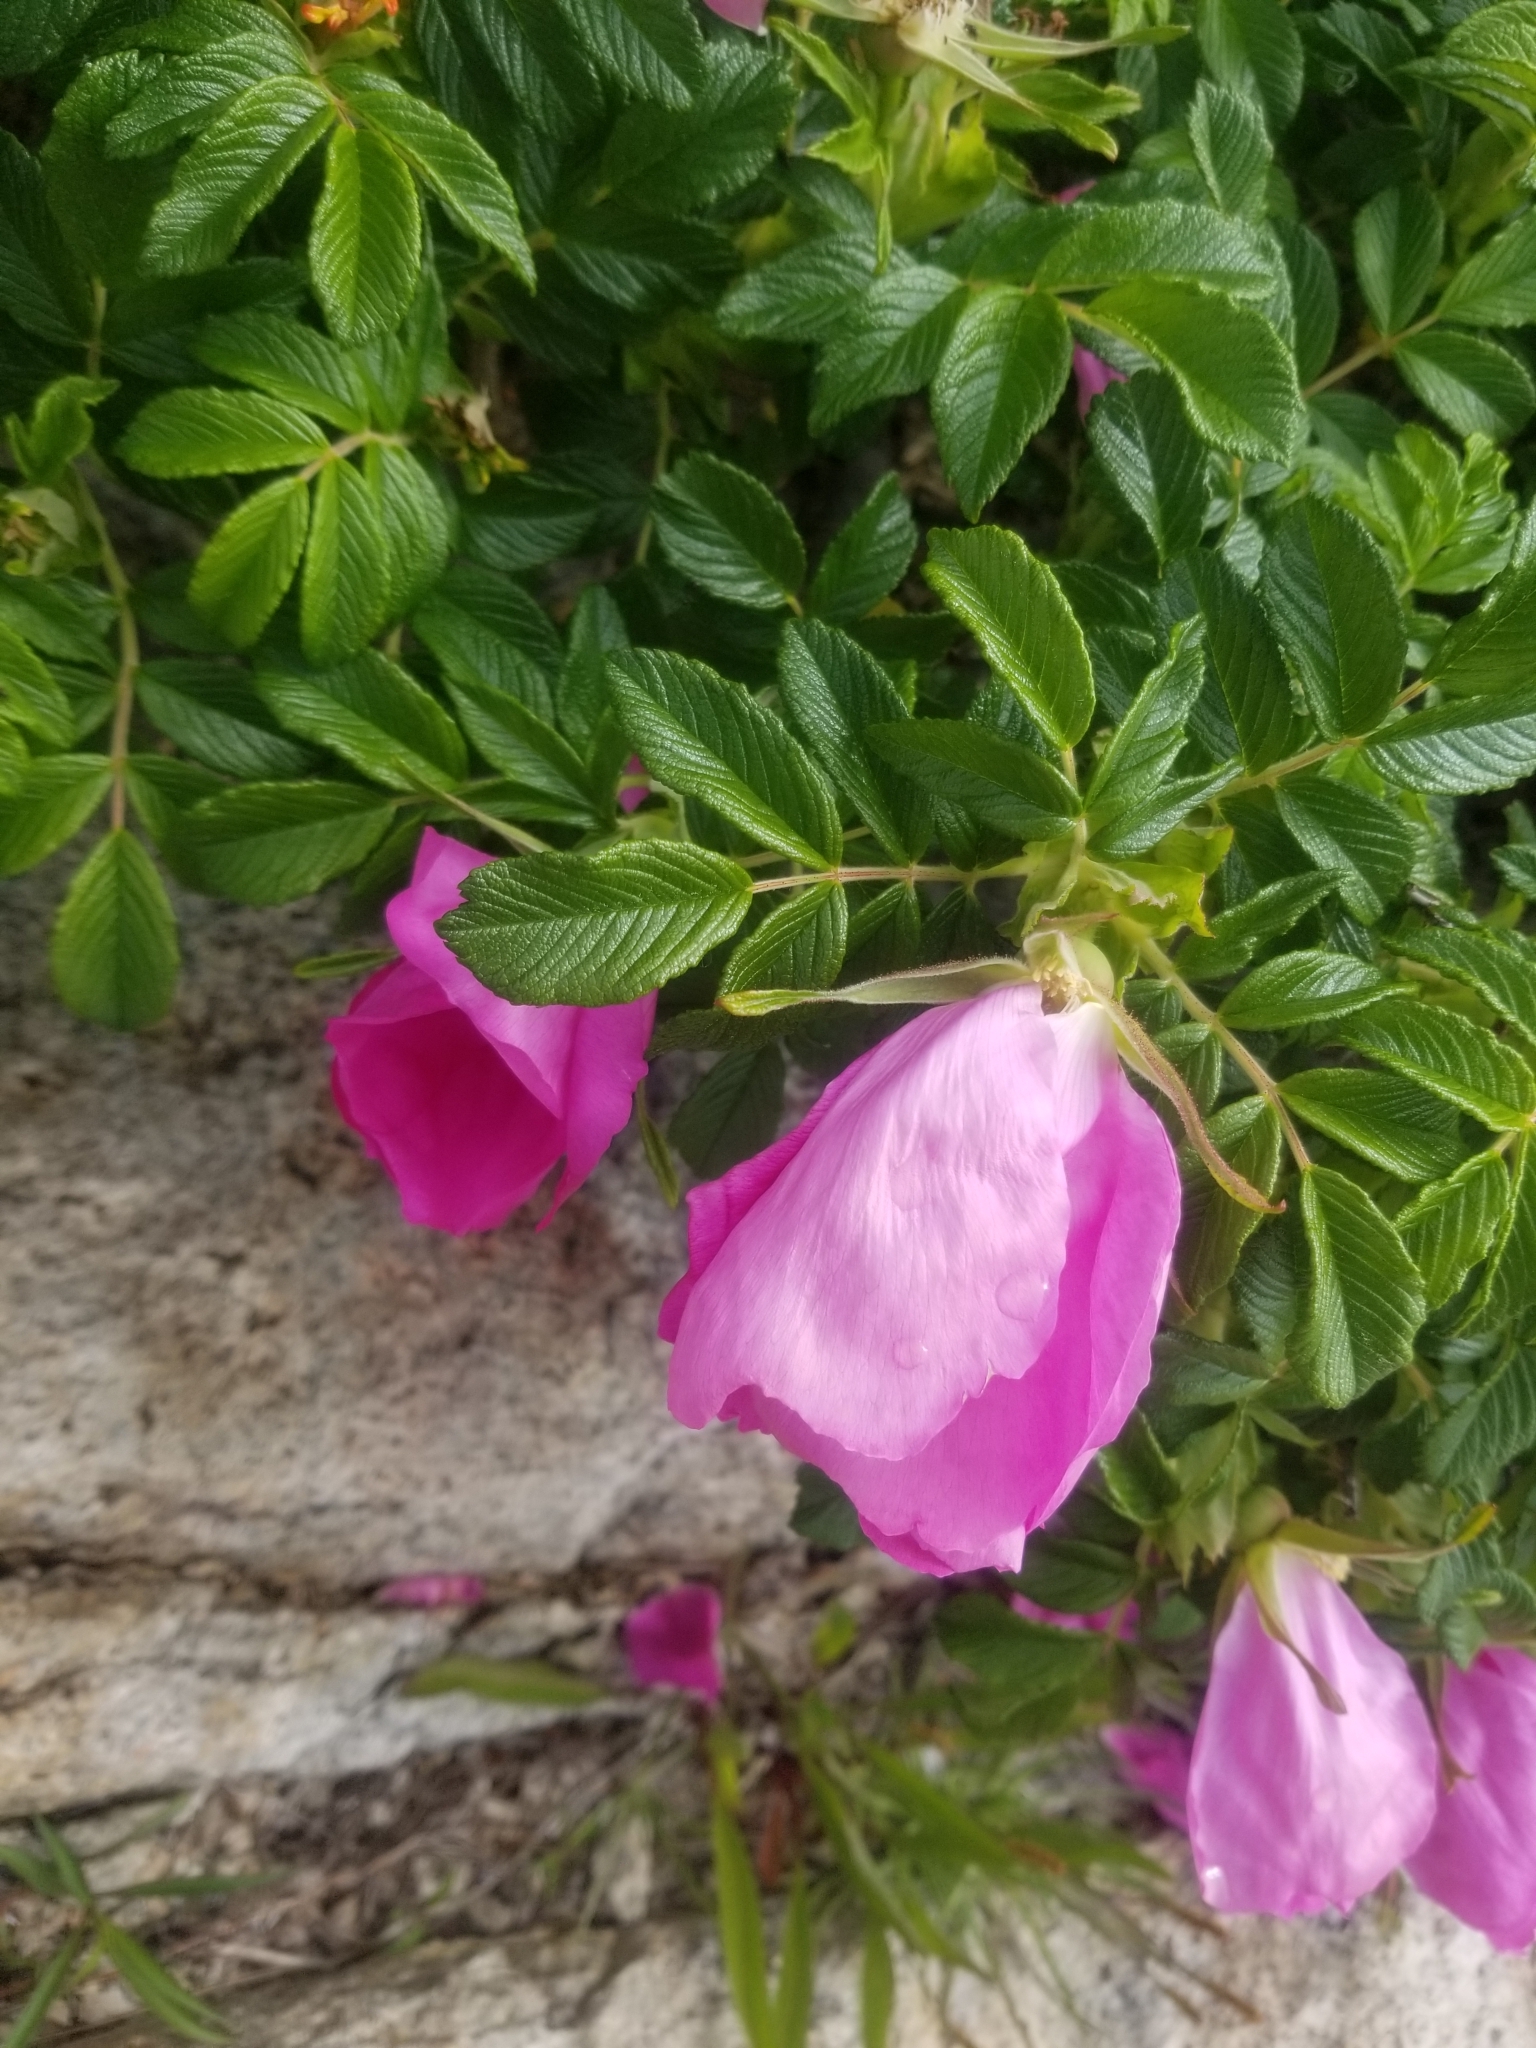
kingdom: Plantae
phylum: Tracheophyta
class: Magnoliopsida
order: Rosales
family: Rosaceae
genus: Rosa
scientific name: Rosa rugosa
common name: Japanese rose
